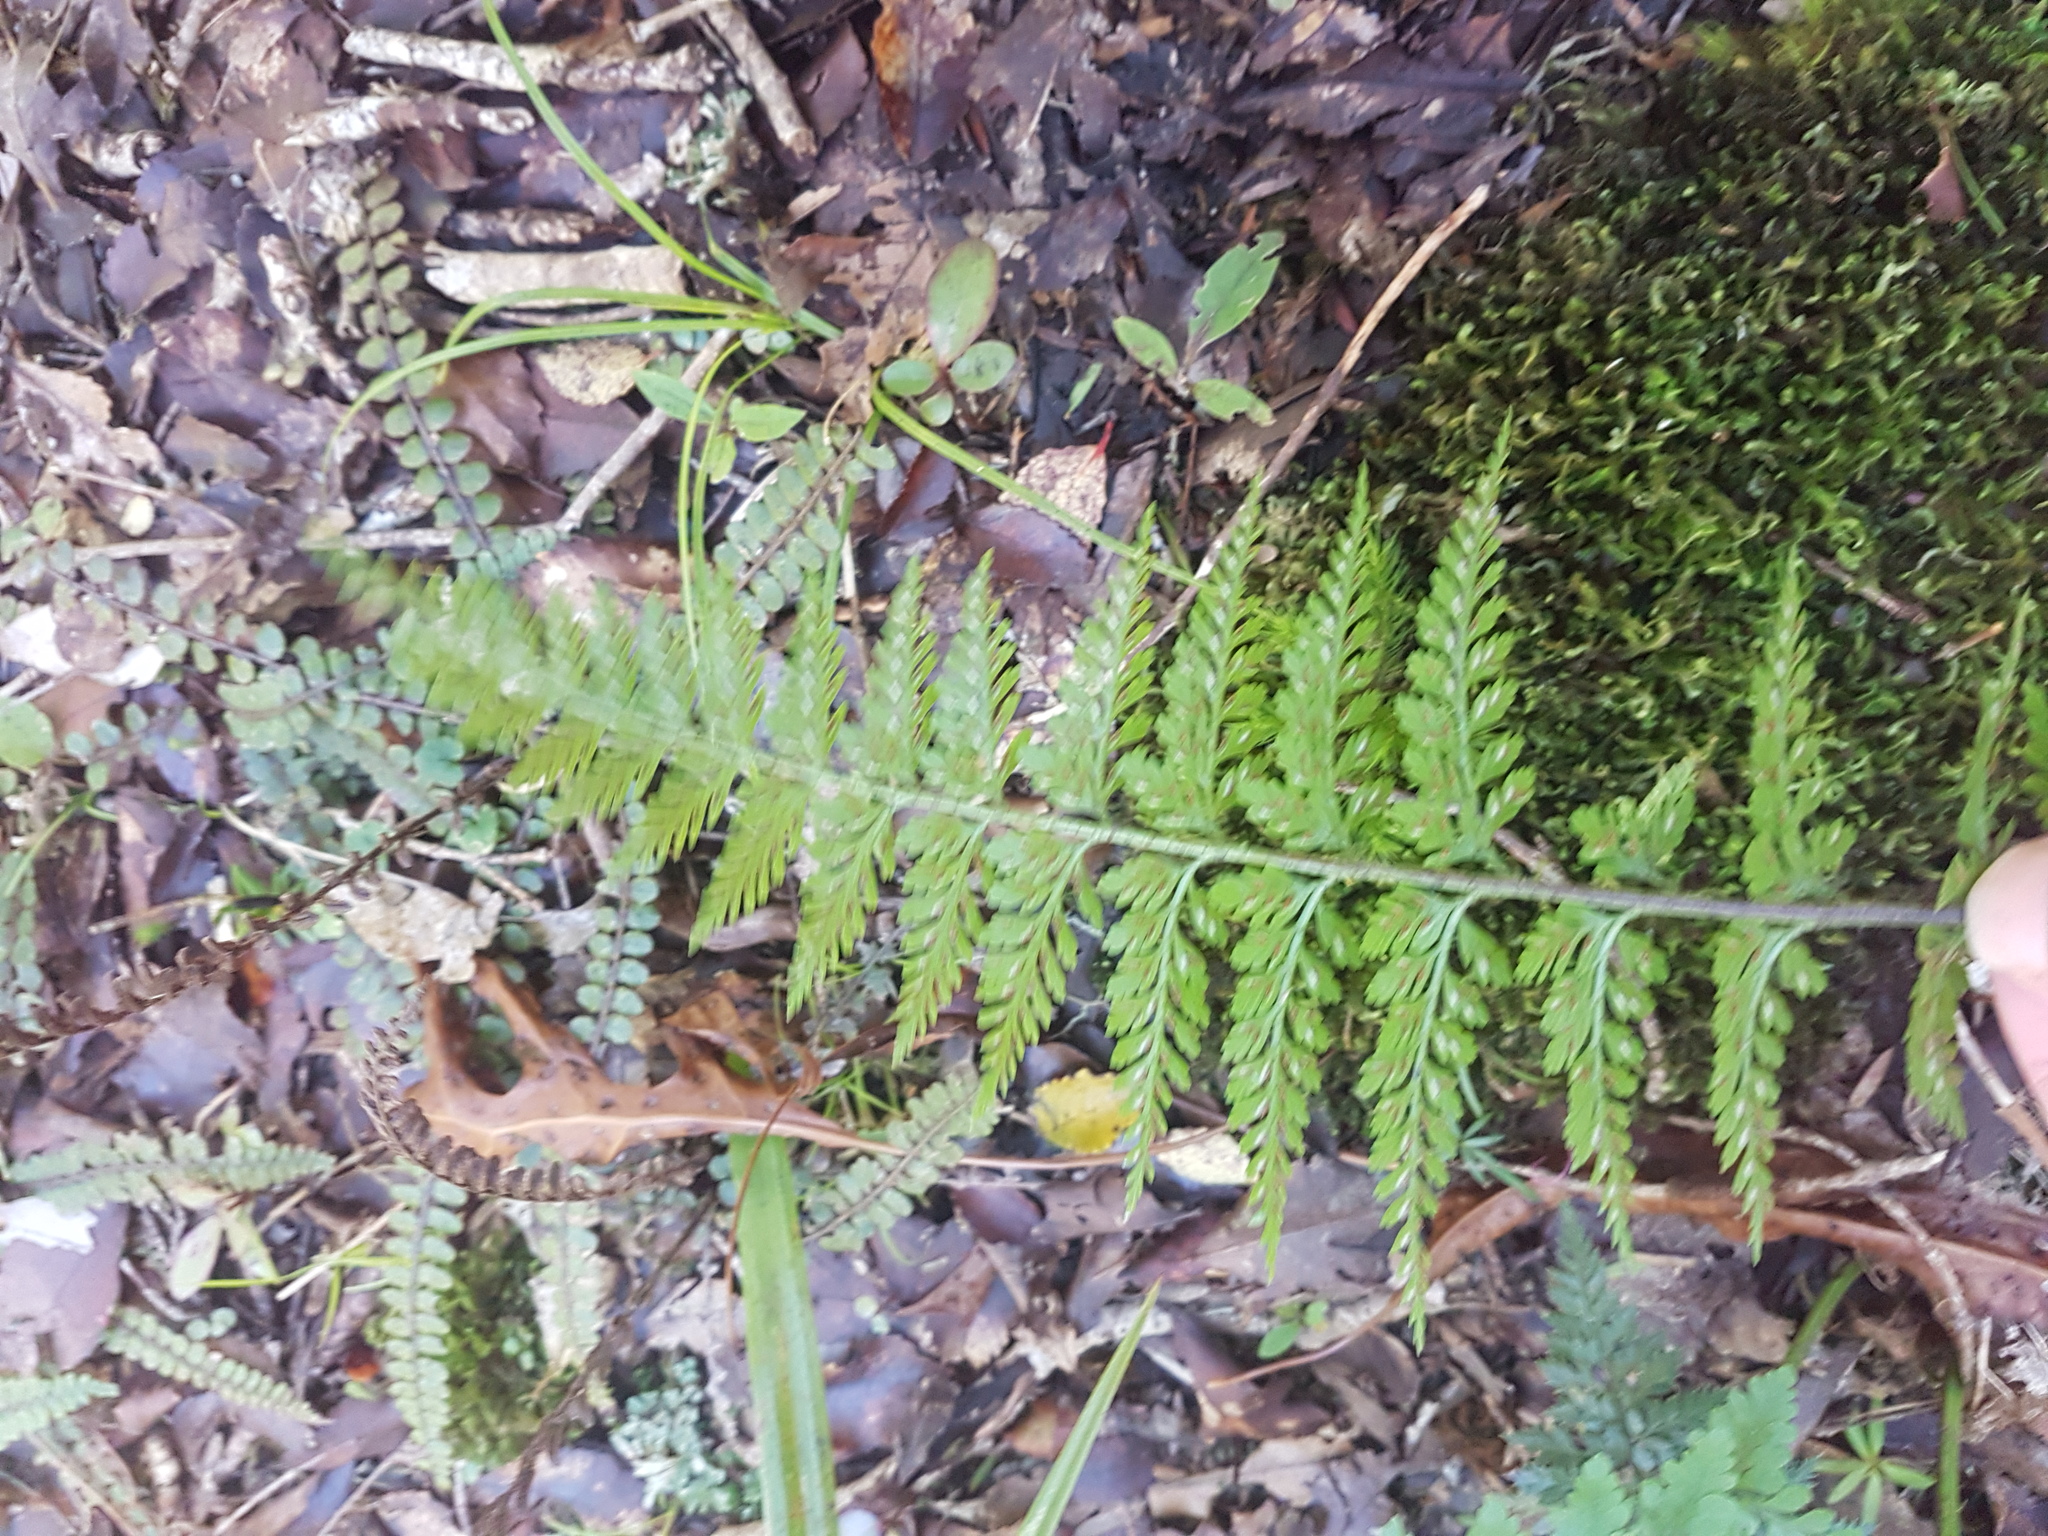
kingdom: Plantae
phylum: Tracheophyta
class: Polypodiopsida
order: Polypodiales
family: Aspleniaceae
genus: Asplenium
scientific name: Asplenium
